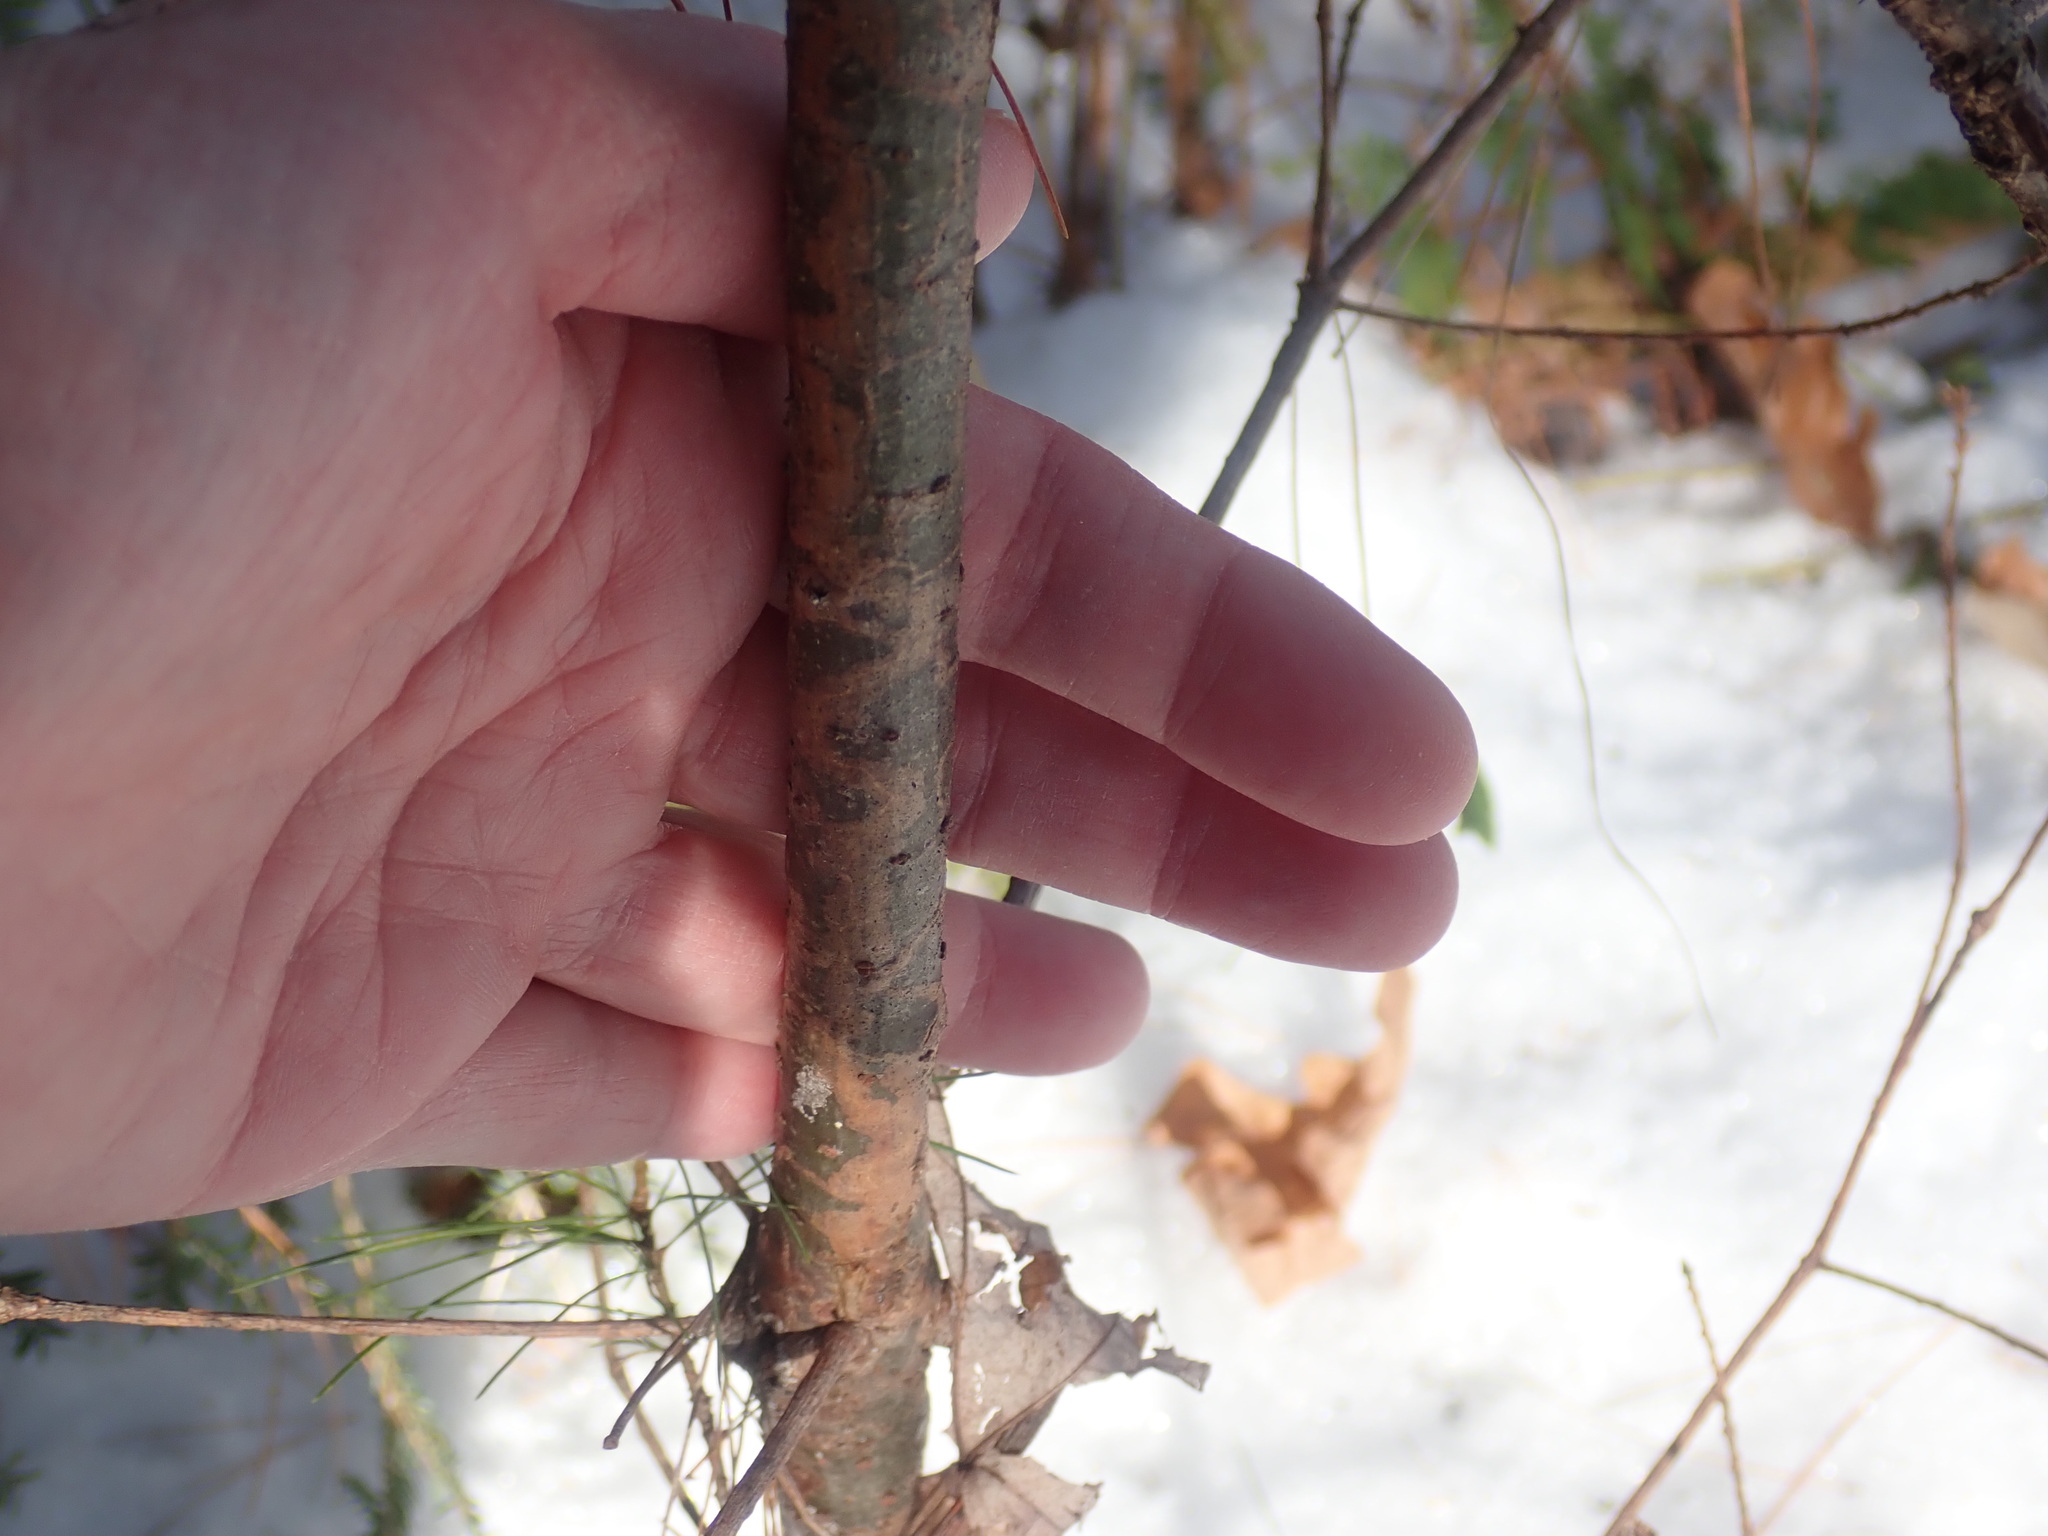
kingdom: Animalia
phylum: Arthropoda
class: Insecta
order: Lepidoptera
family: Gracillariidae
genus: Marmara
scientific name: Marmara fasciella
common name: White pine barkminer moth
